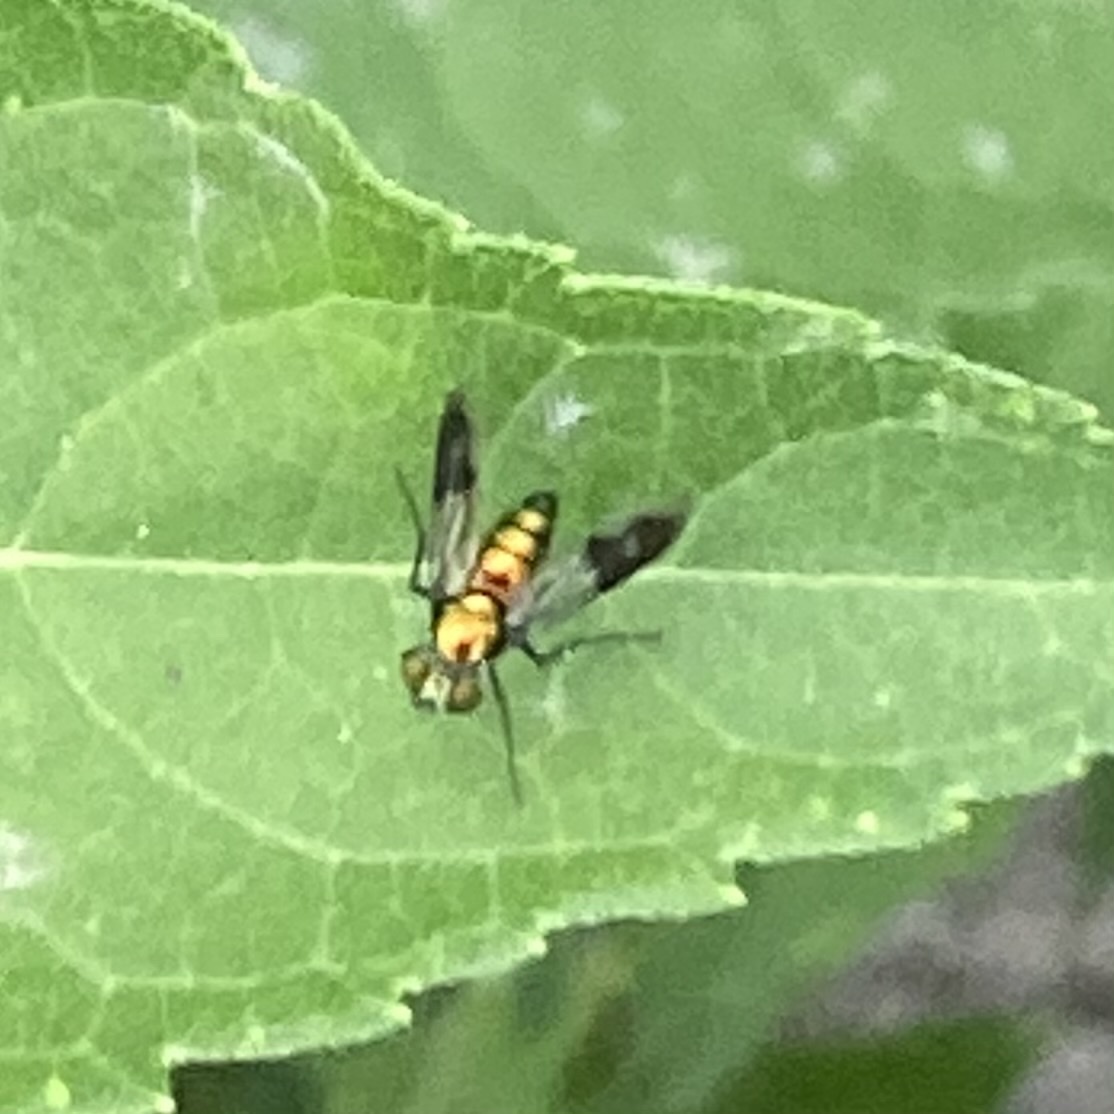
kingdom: Animalia
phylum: Arthropoda
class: Insecta
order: Diptera
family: Dolichopodidae
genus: Condylostylus
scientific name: Condylostylus patibulatus
